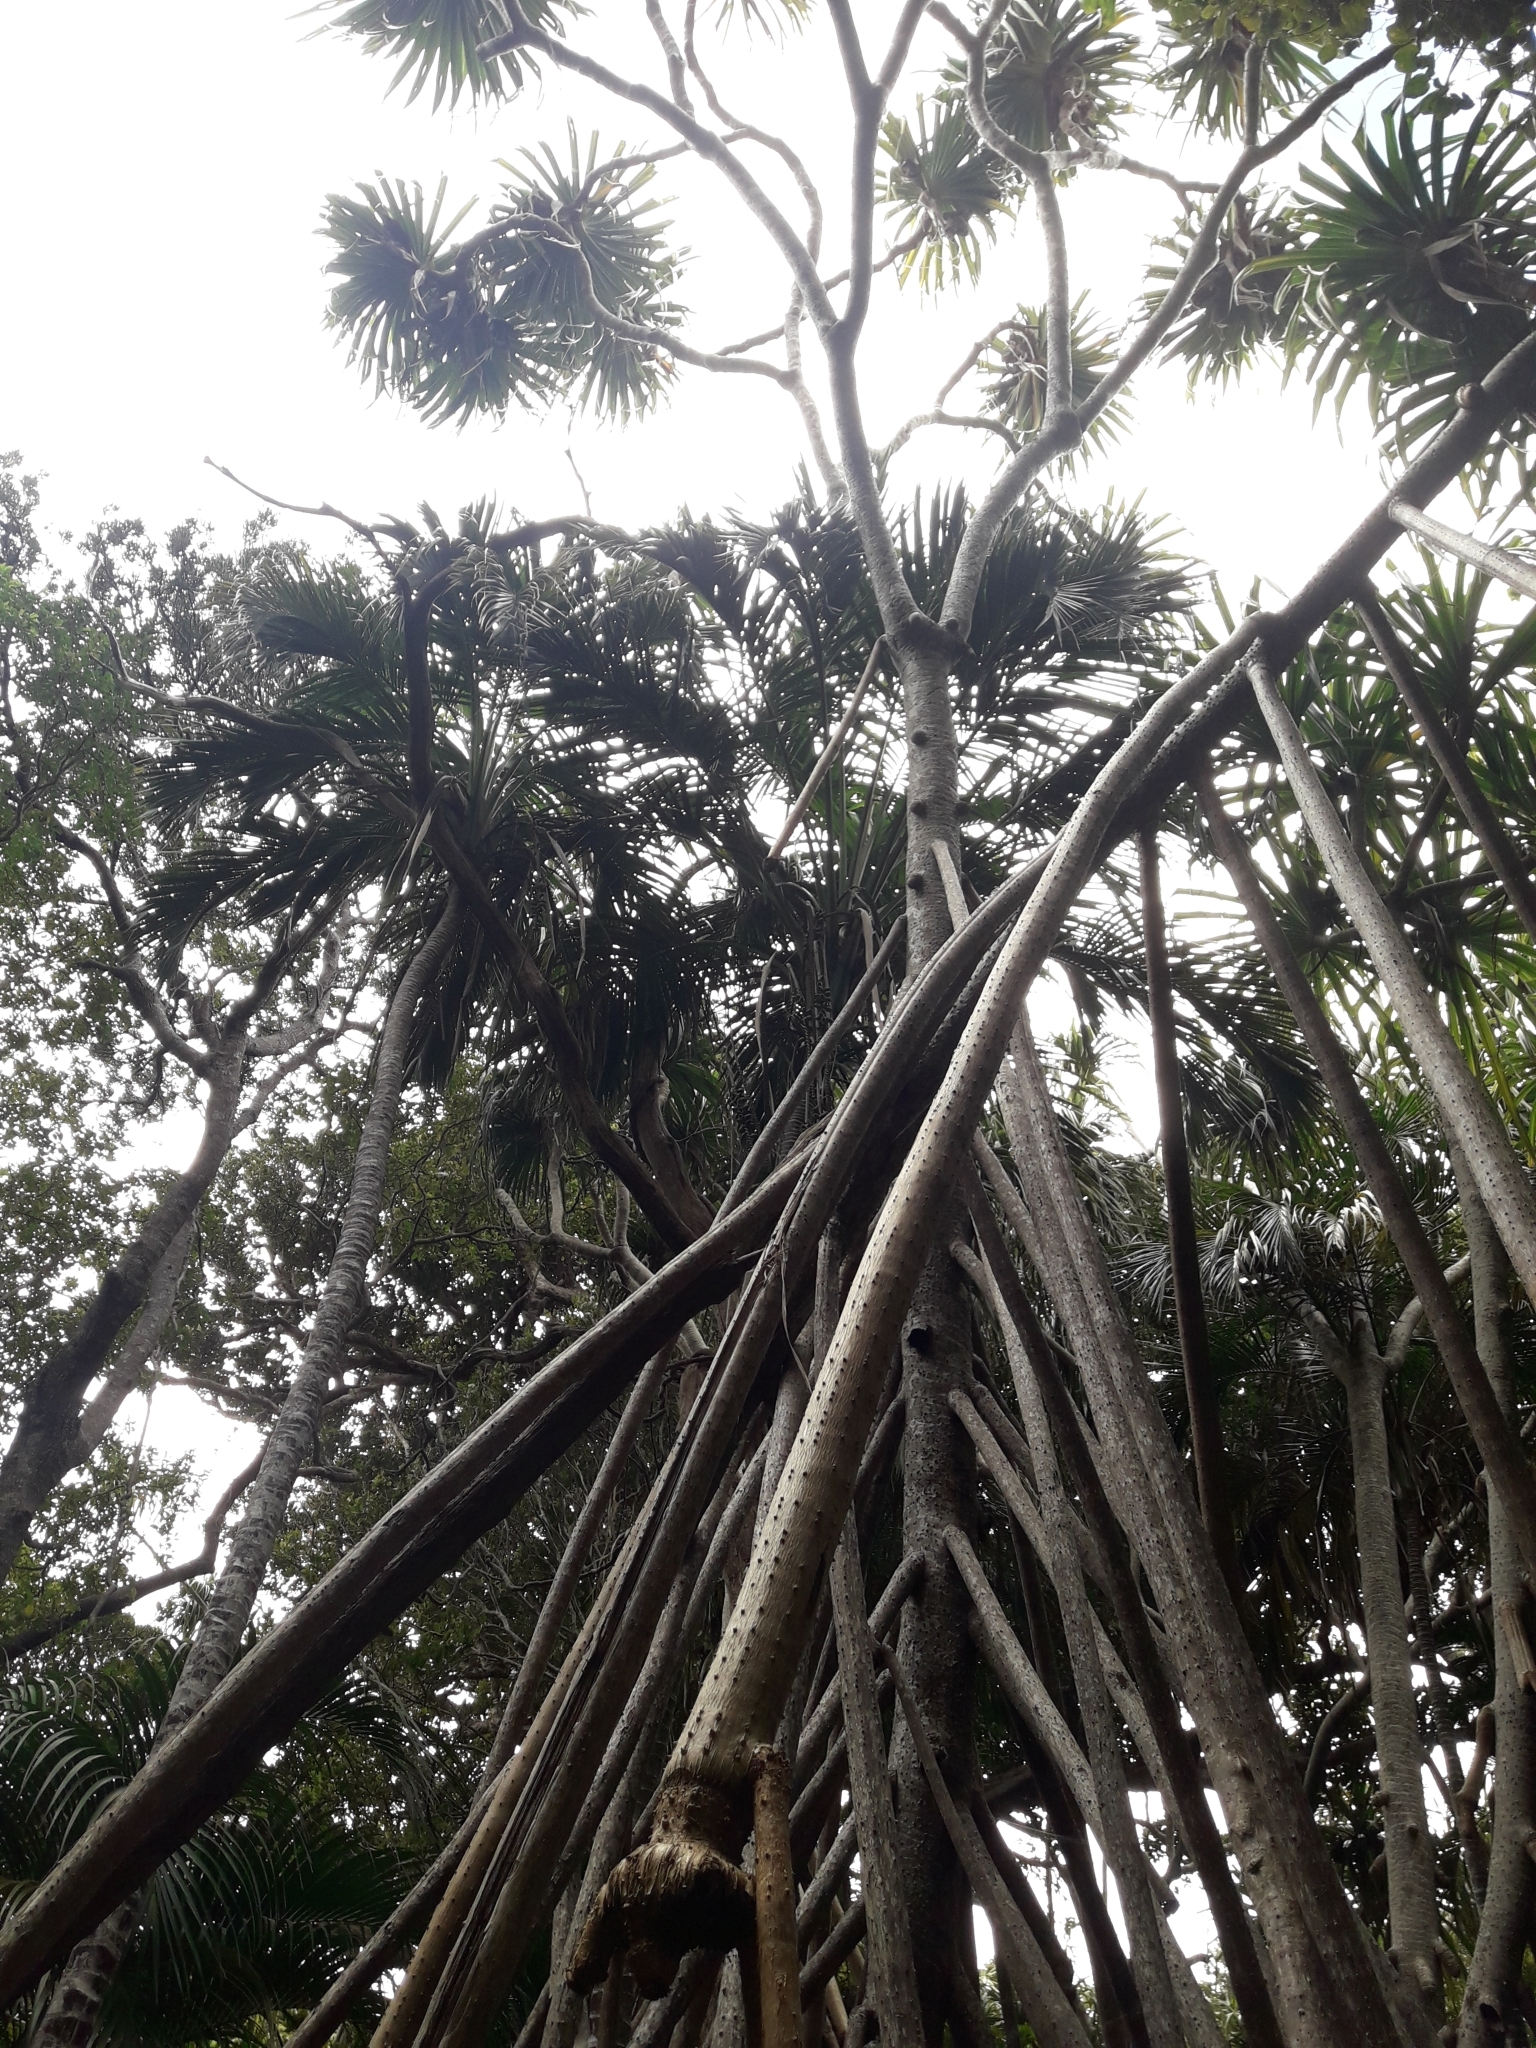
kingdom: Plantae
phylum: Tracheophyta
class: Liliopsida
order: Pandanales
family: Pandanaceae
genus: Pandanus
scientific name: Pandanus forsteri
